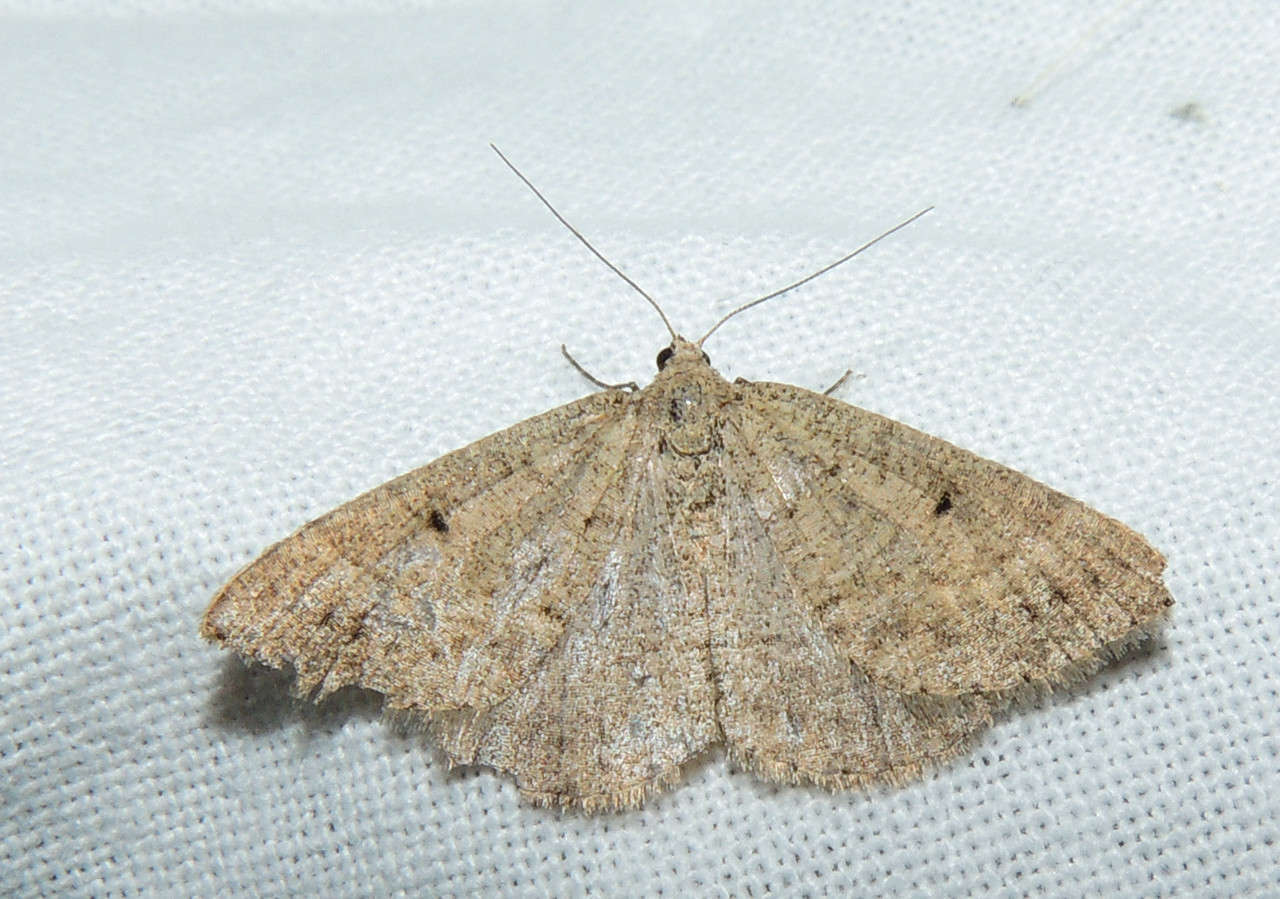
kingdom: Animalia
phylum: Arthropoda
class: Insecta
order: Lepidoptera
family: Geometridae
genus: Taxeotis
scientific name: Taxeotis adelia
